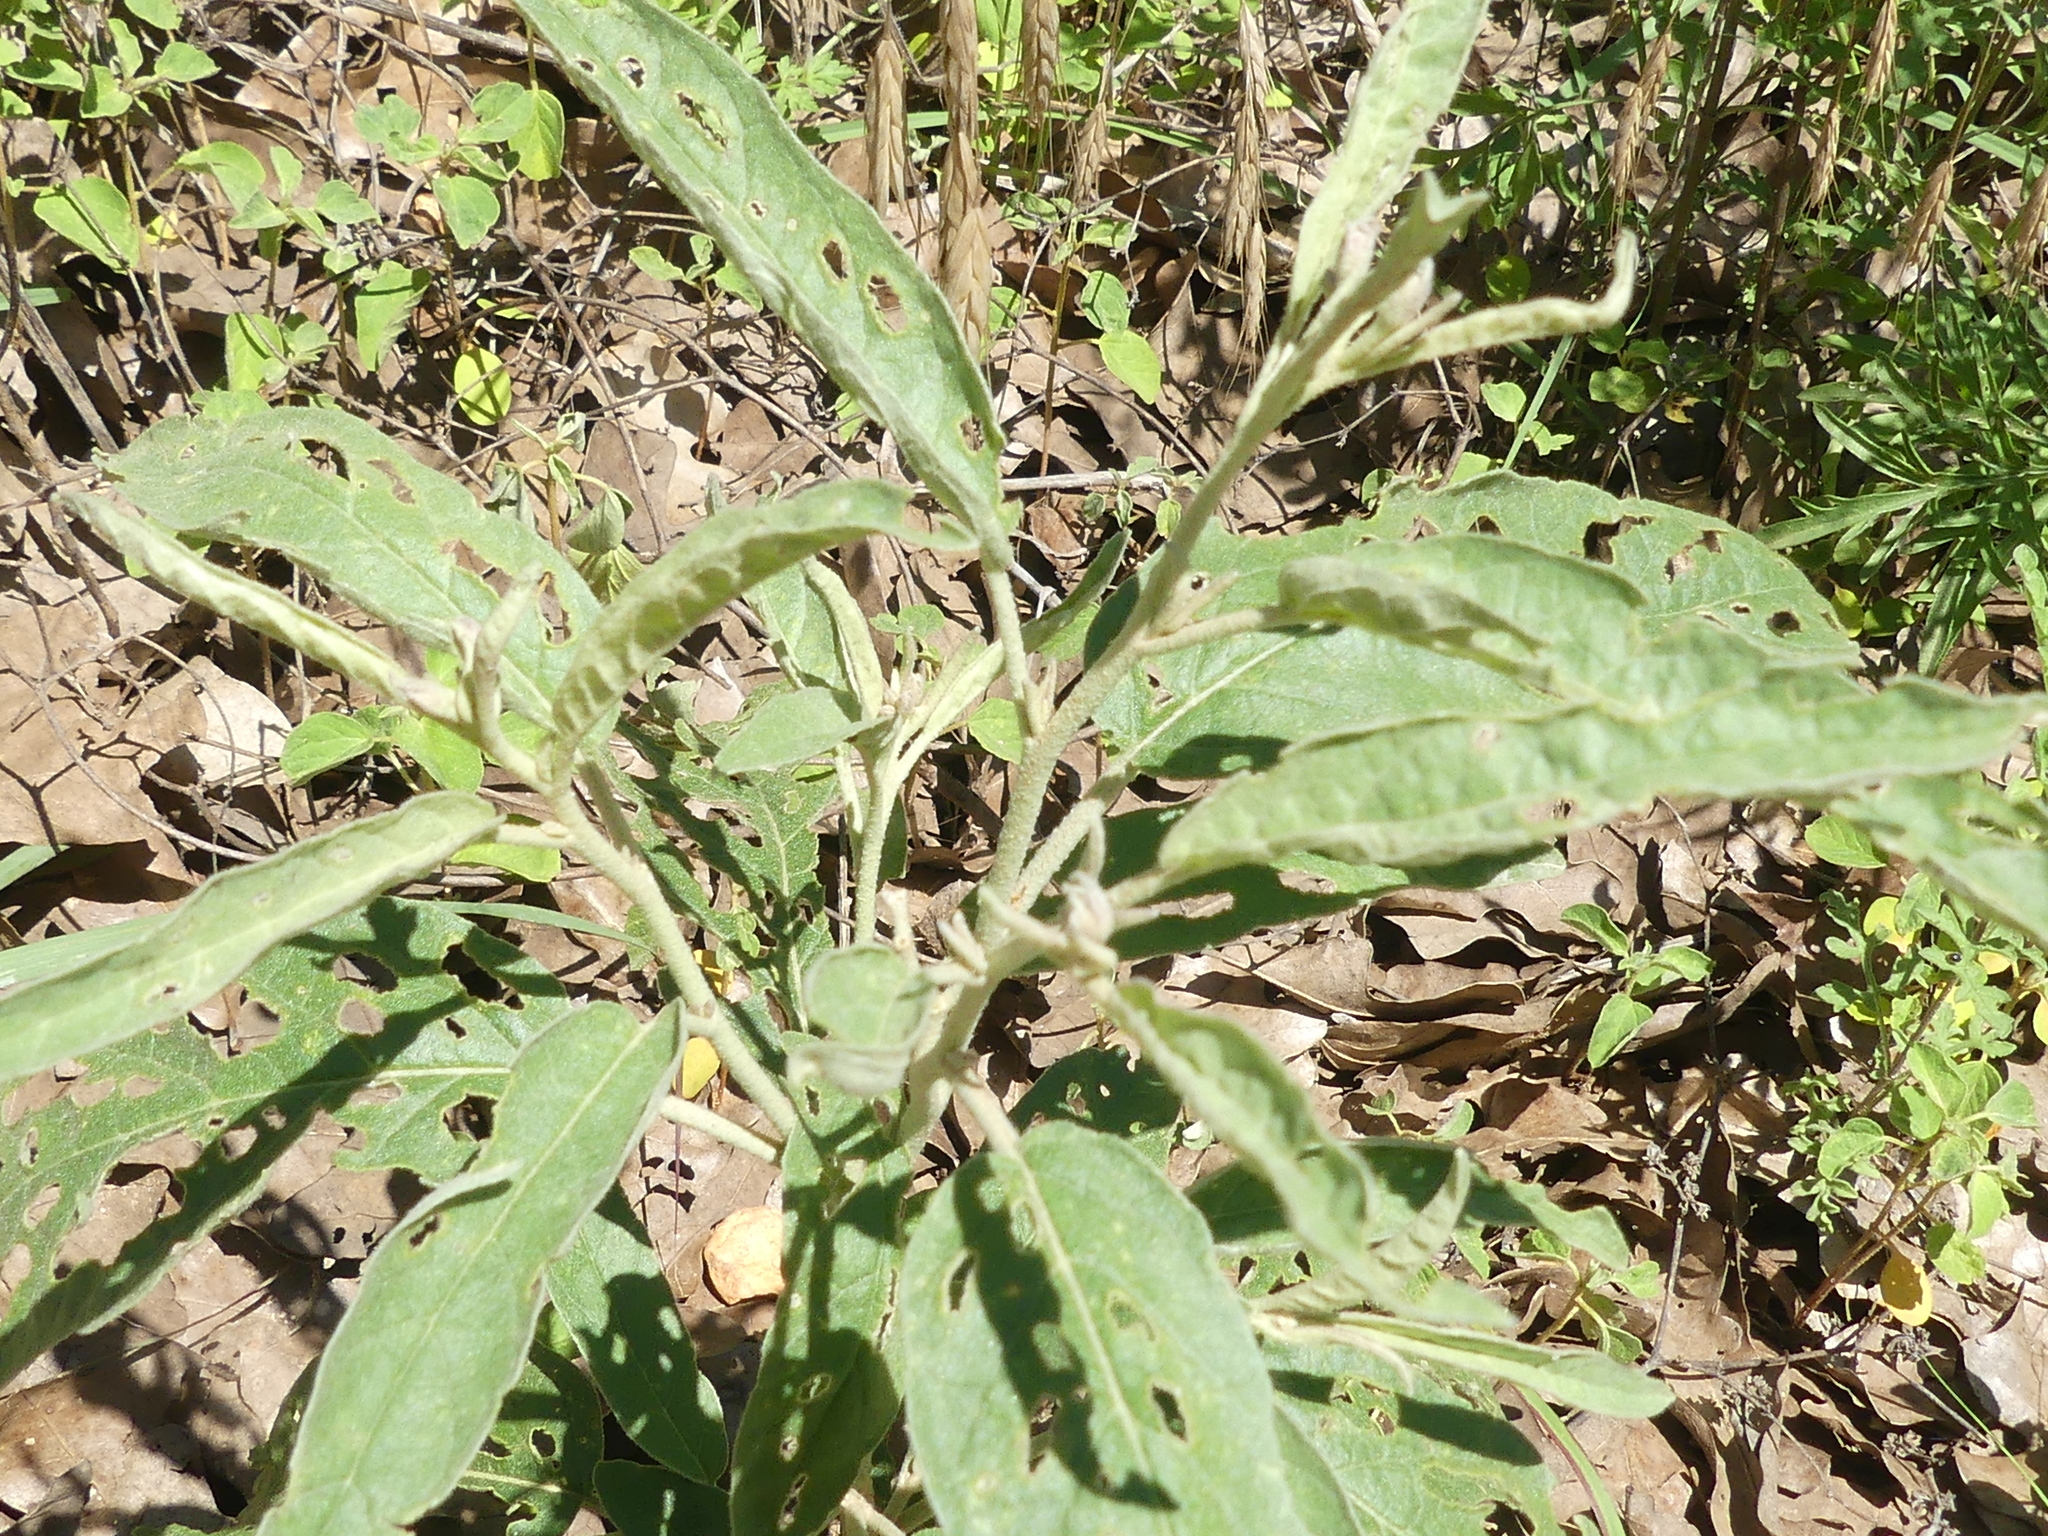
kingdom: Plantae
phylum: Tracheophyta
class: Magnoliopsida
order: Solanales
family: Solanaceae
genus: Solanum
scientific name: Solanum elaeagnifolium
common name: Silverleaf nightshade
